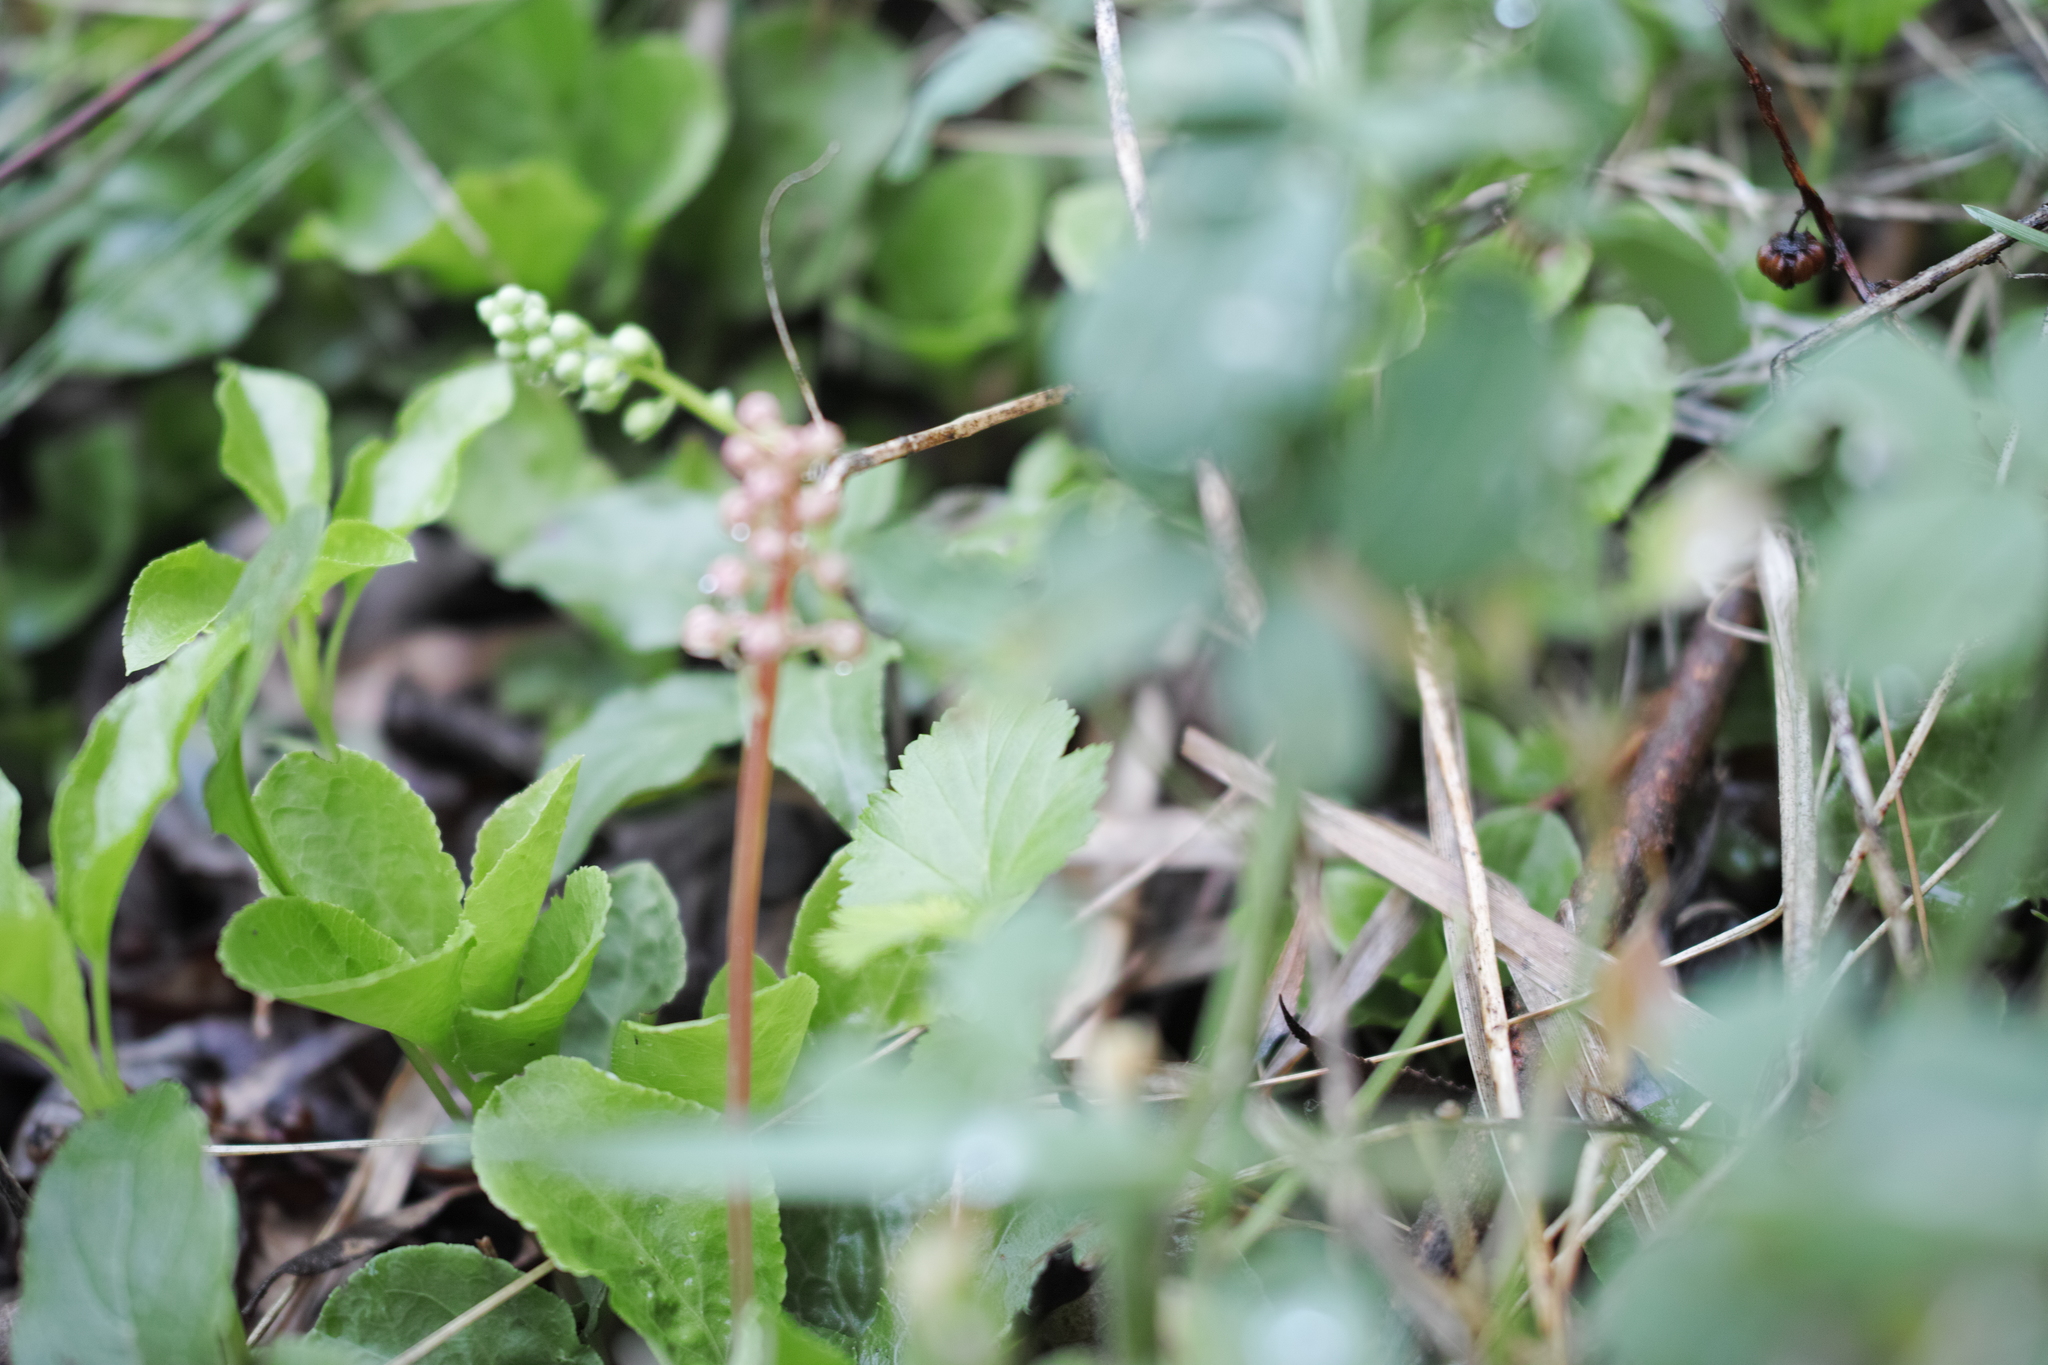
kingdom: Plantae
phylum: Tracheophyta
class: Magnoliopsida
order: Ericales
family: Ericaceae
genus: Pyrola
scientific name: Pyrola minor
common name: Common wintergreen
